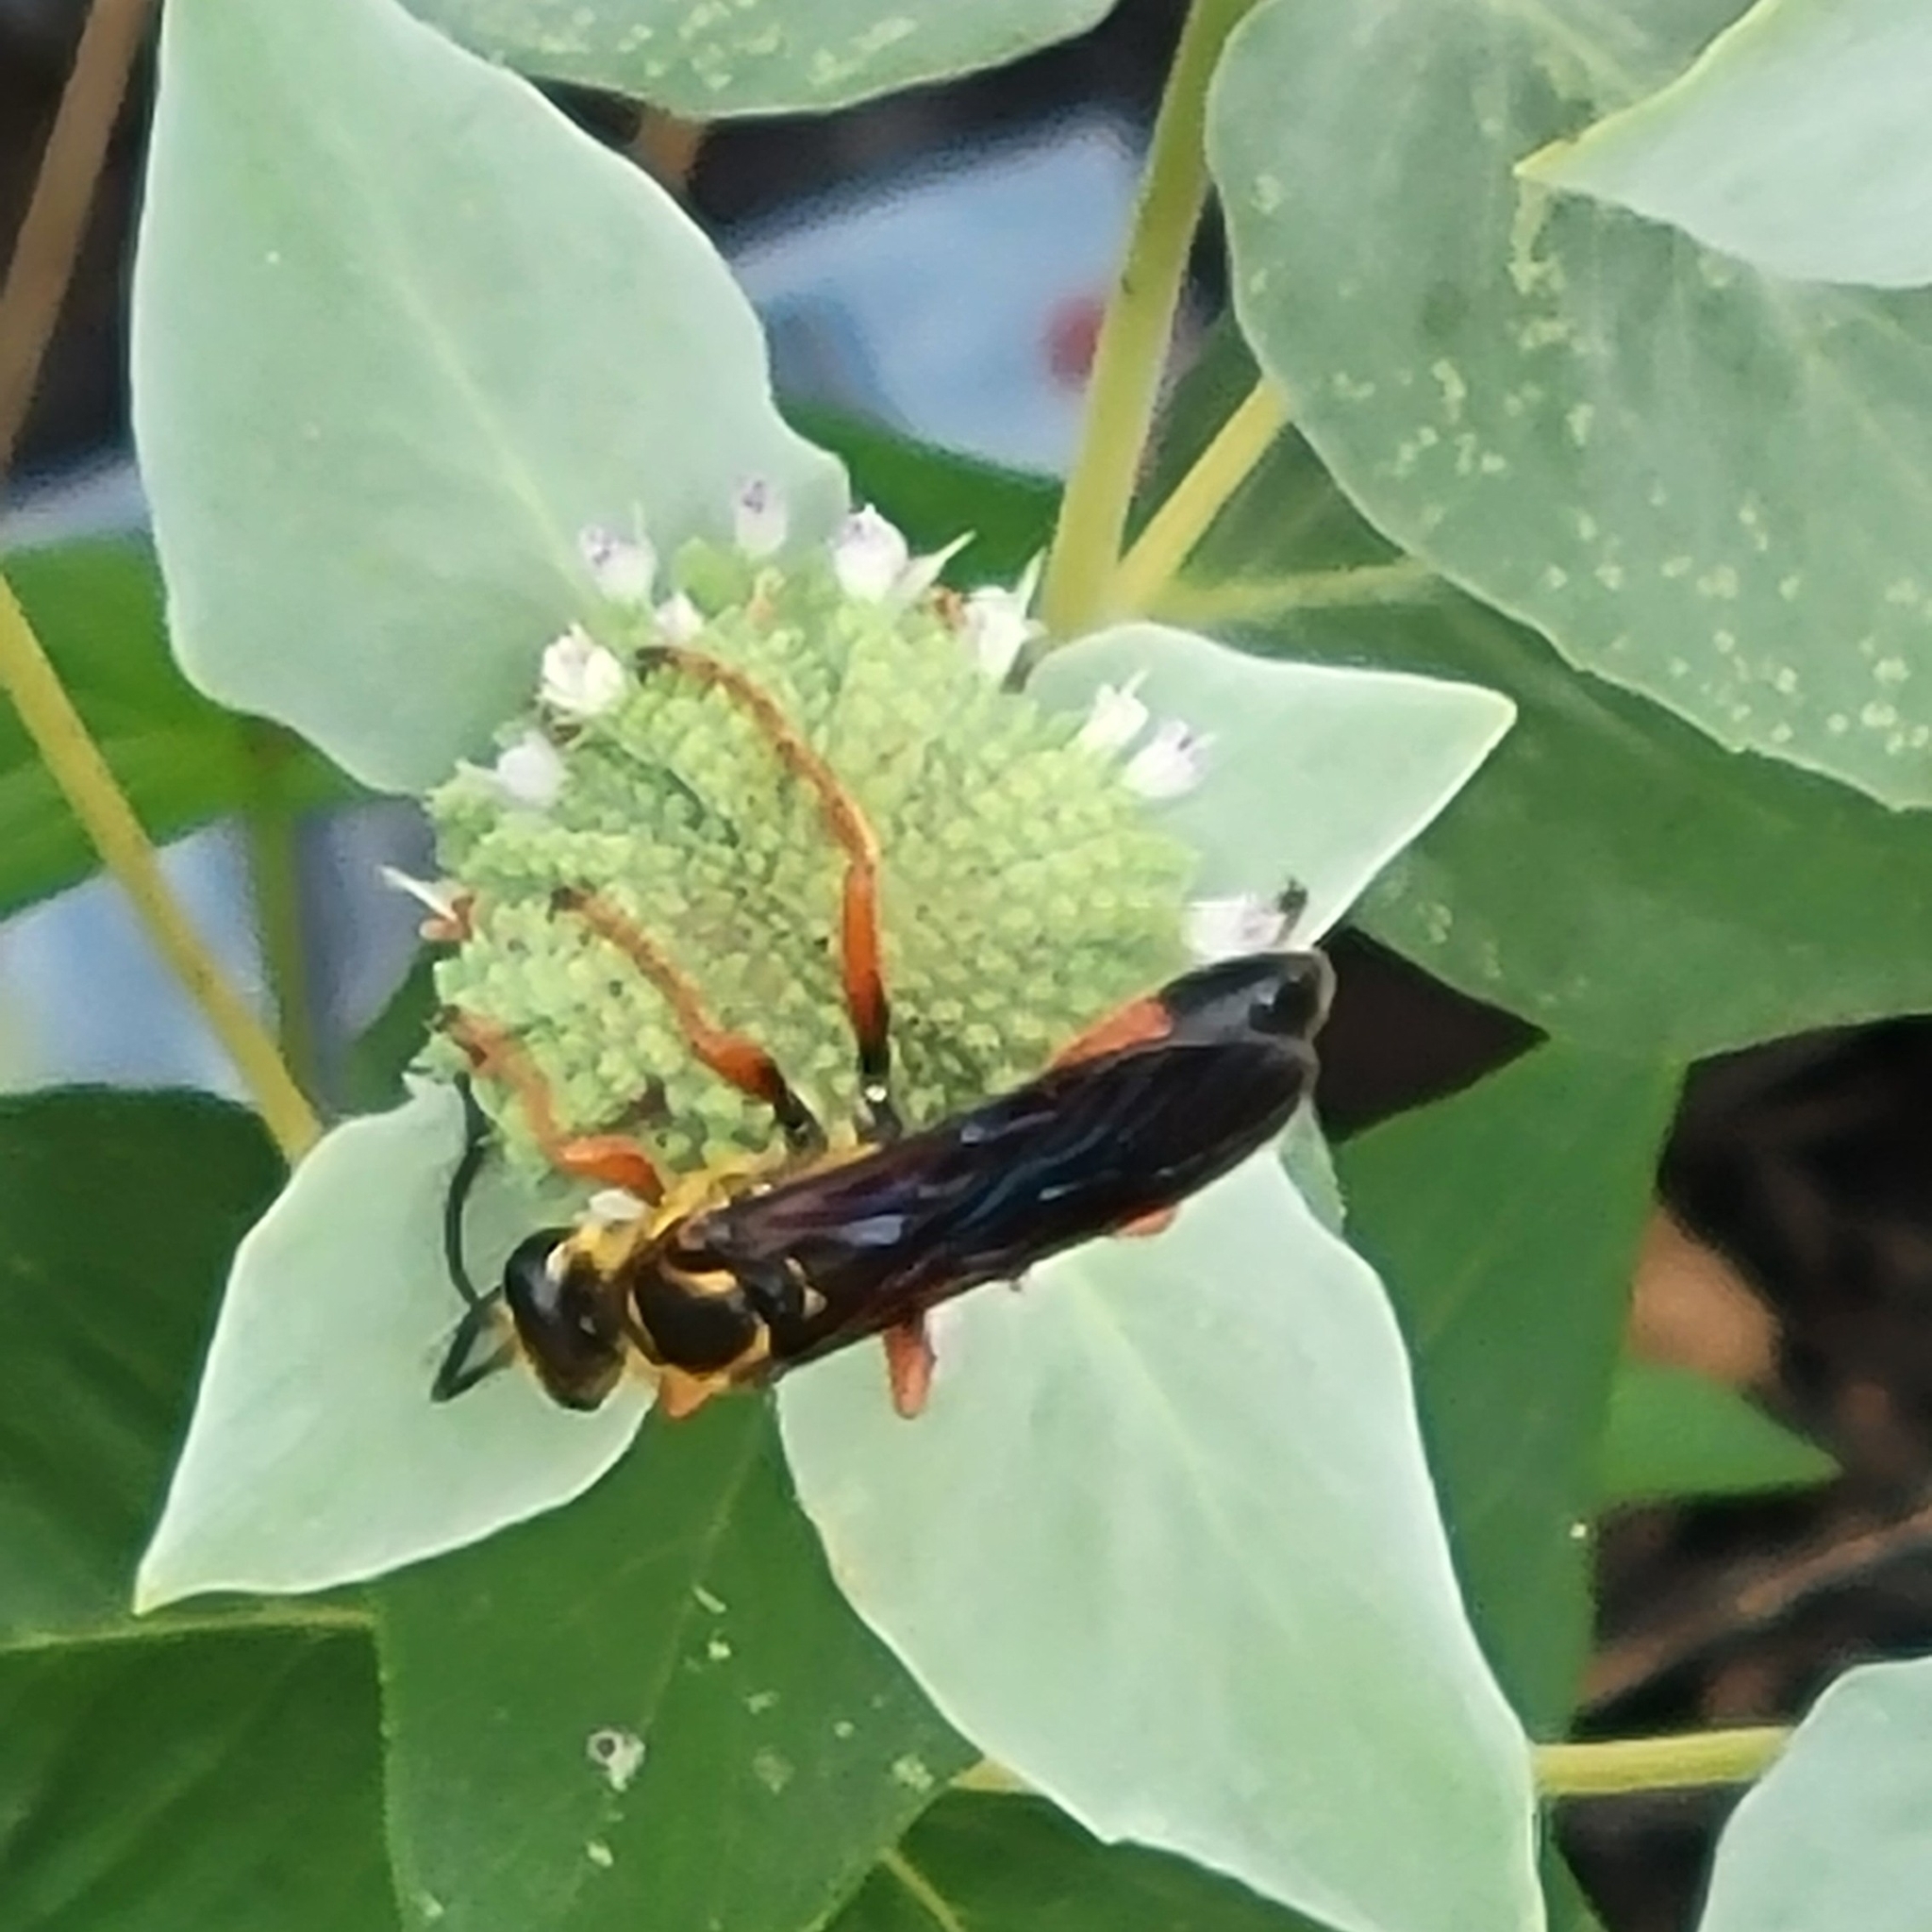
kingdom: Animalia
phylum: Arthropoda
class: Insecta
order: Hymenoptera
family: Sphecidae
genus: Sphex
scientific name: Sphex ichneumoneus
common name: Great golden digger wasp
